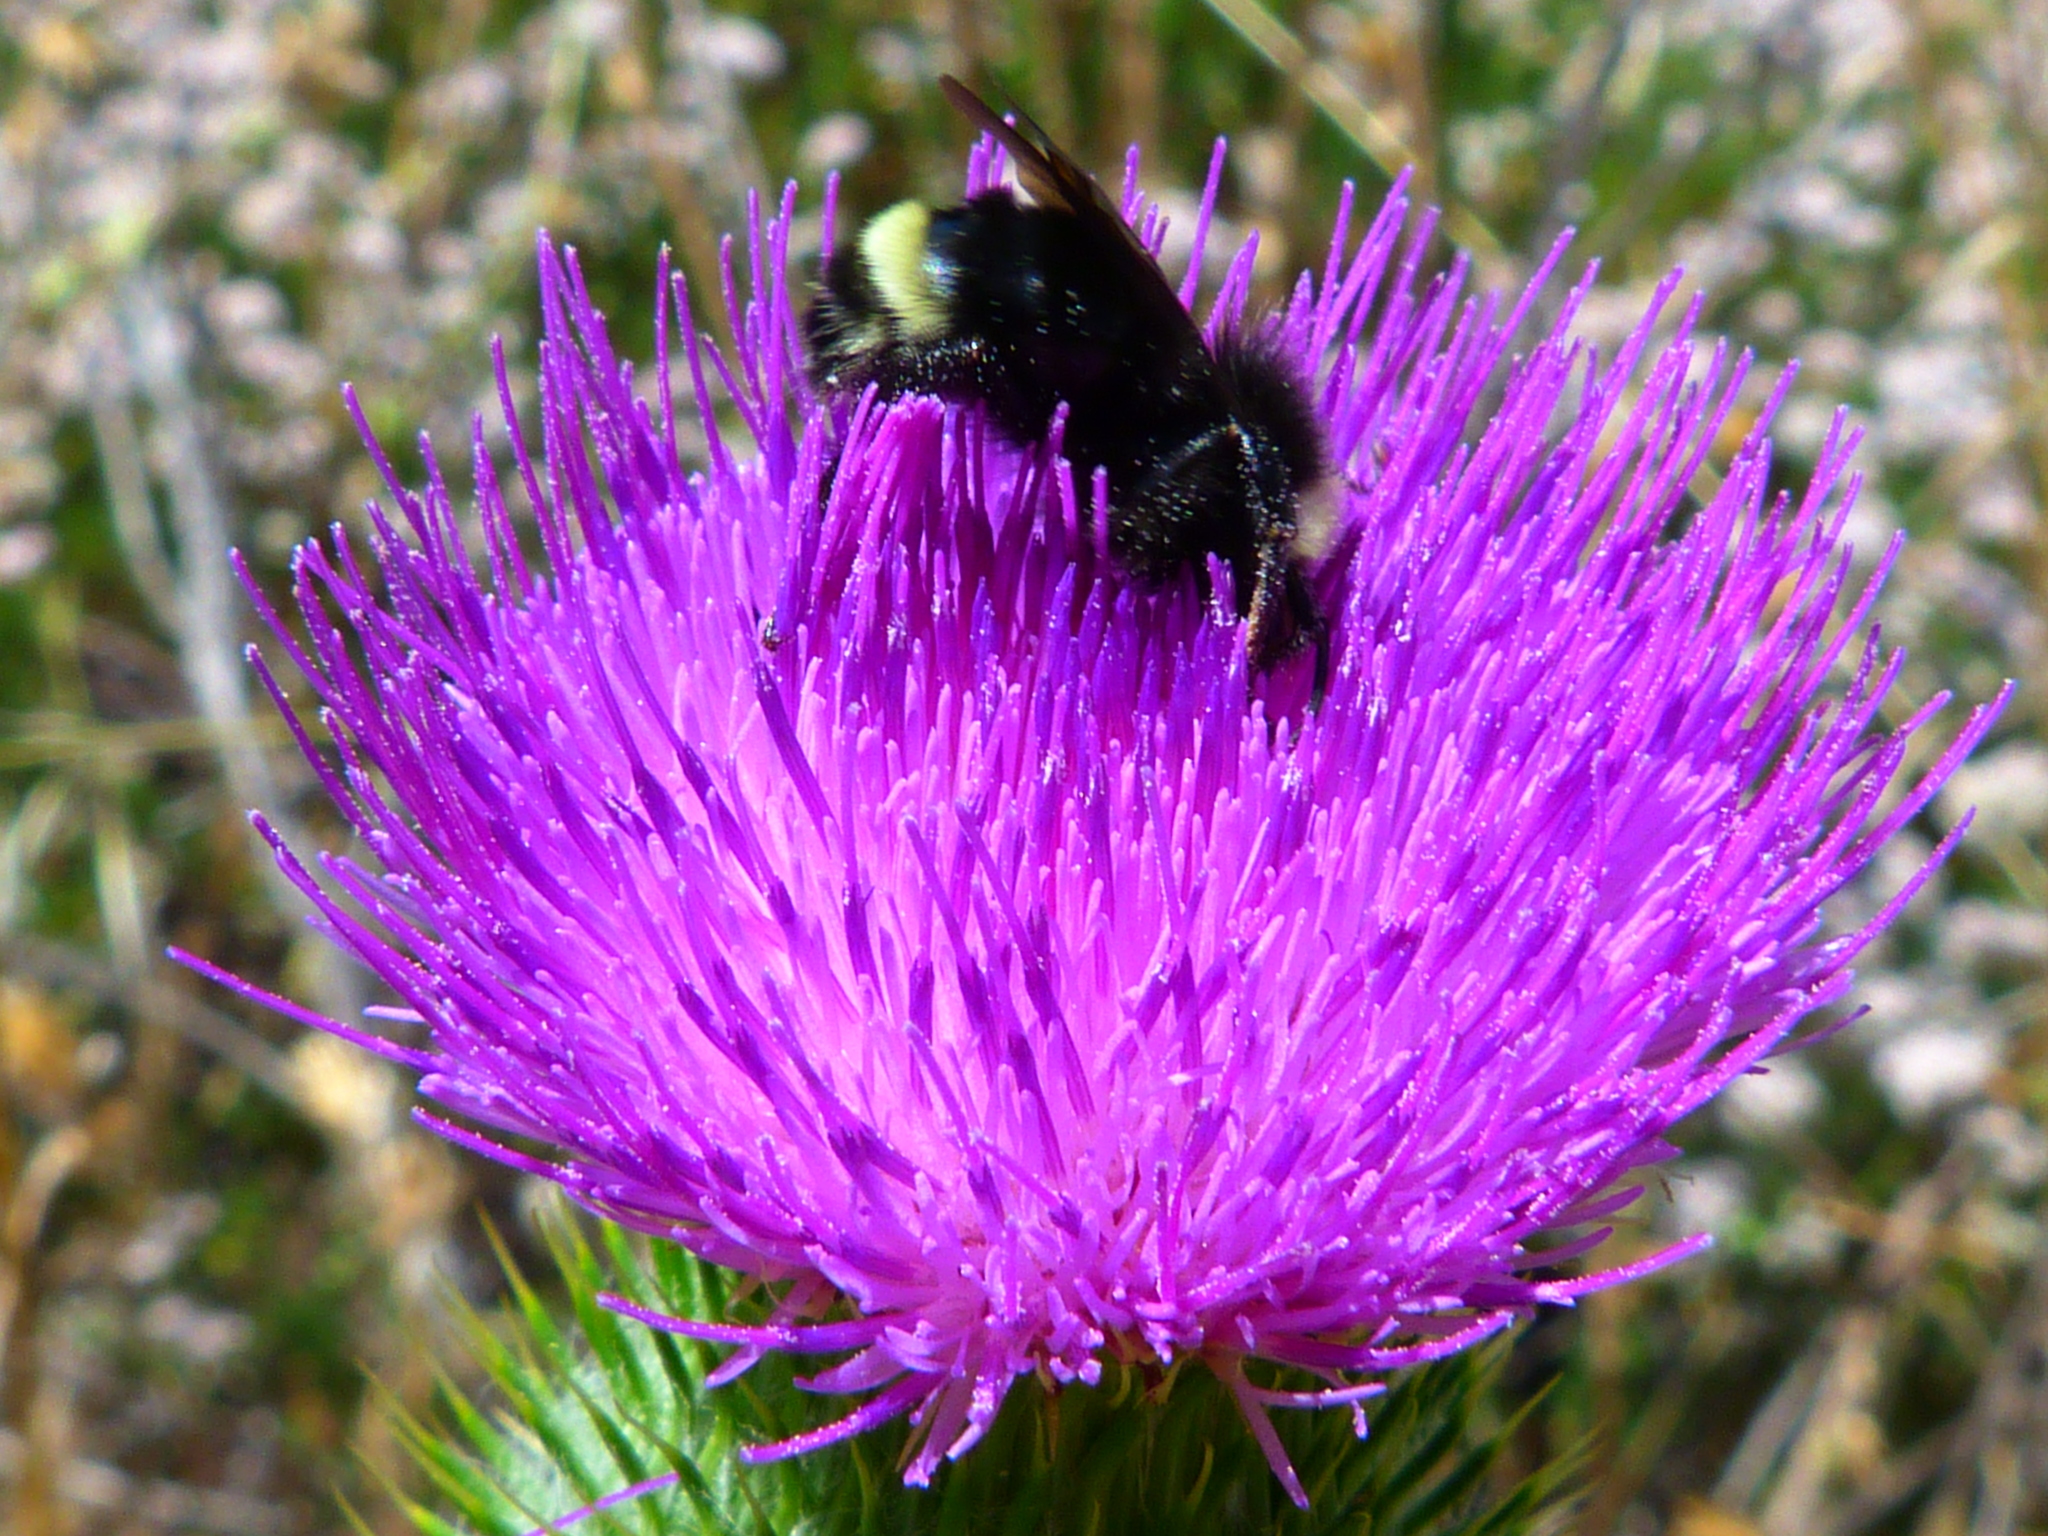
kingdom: Animalia
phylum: Arthropoda
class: Insecta
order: Hymenoptera
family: Apidae
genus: Bombus
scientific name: Bombus
